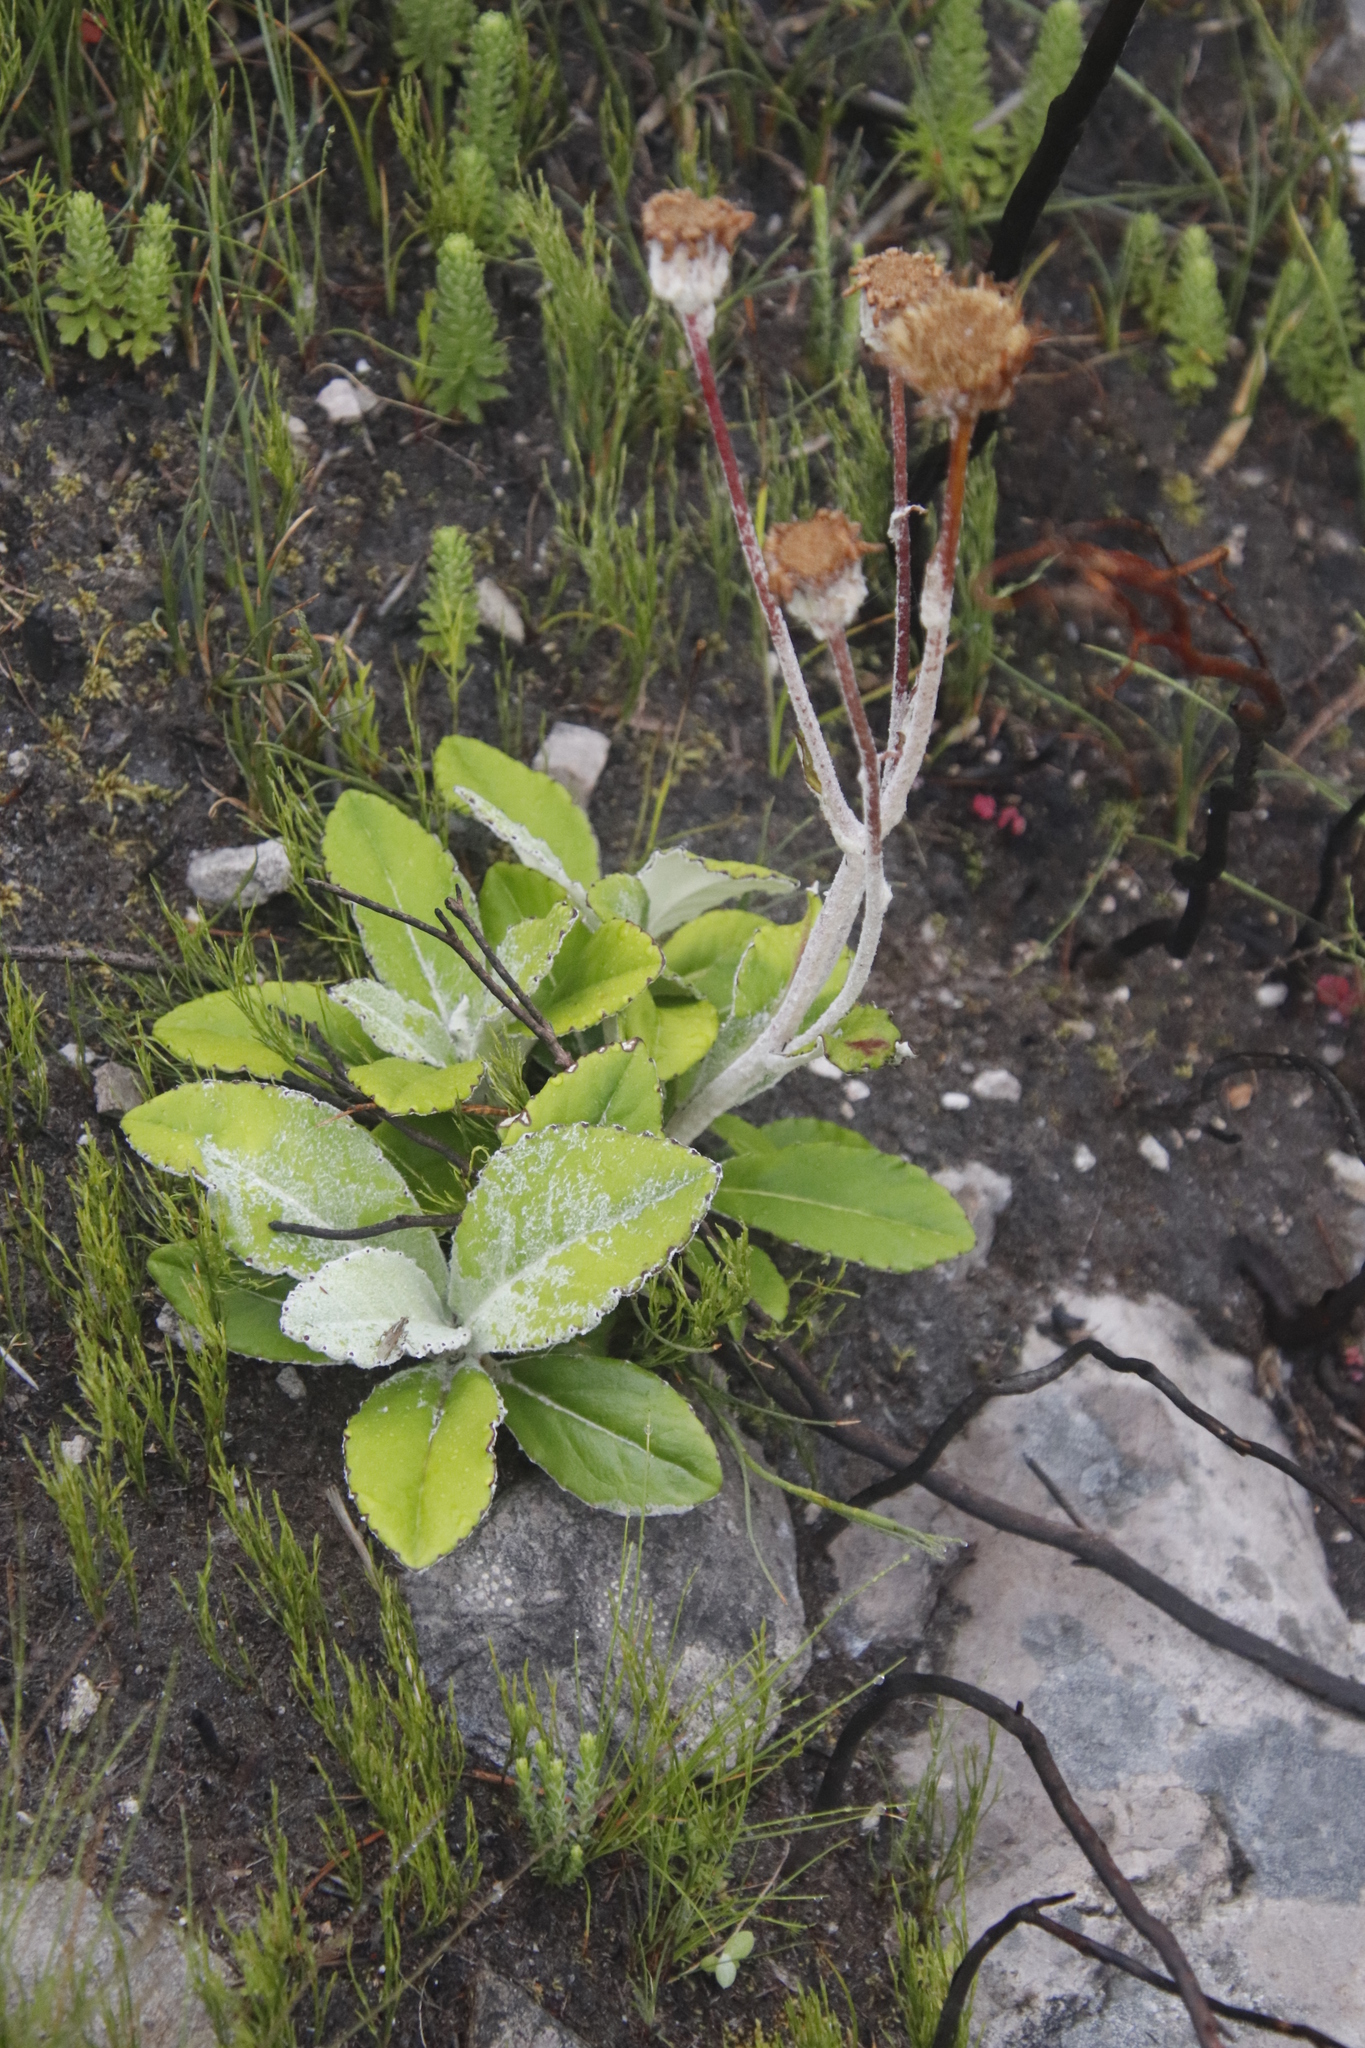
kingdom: Plantae
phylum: Tracheophyta
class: Magnoliopsida
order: Asterales
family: Asteraceae
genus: Mairia
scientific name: Mairia robusta
